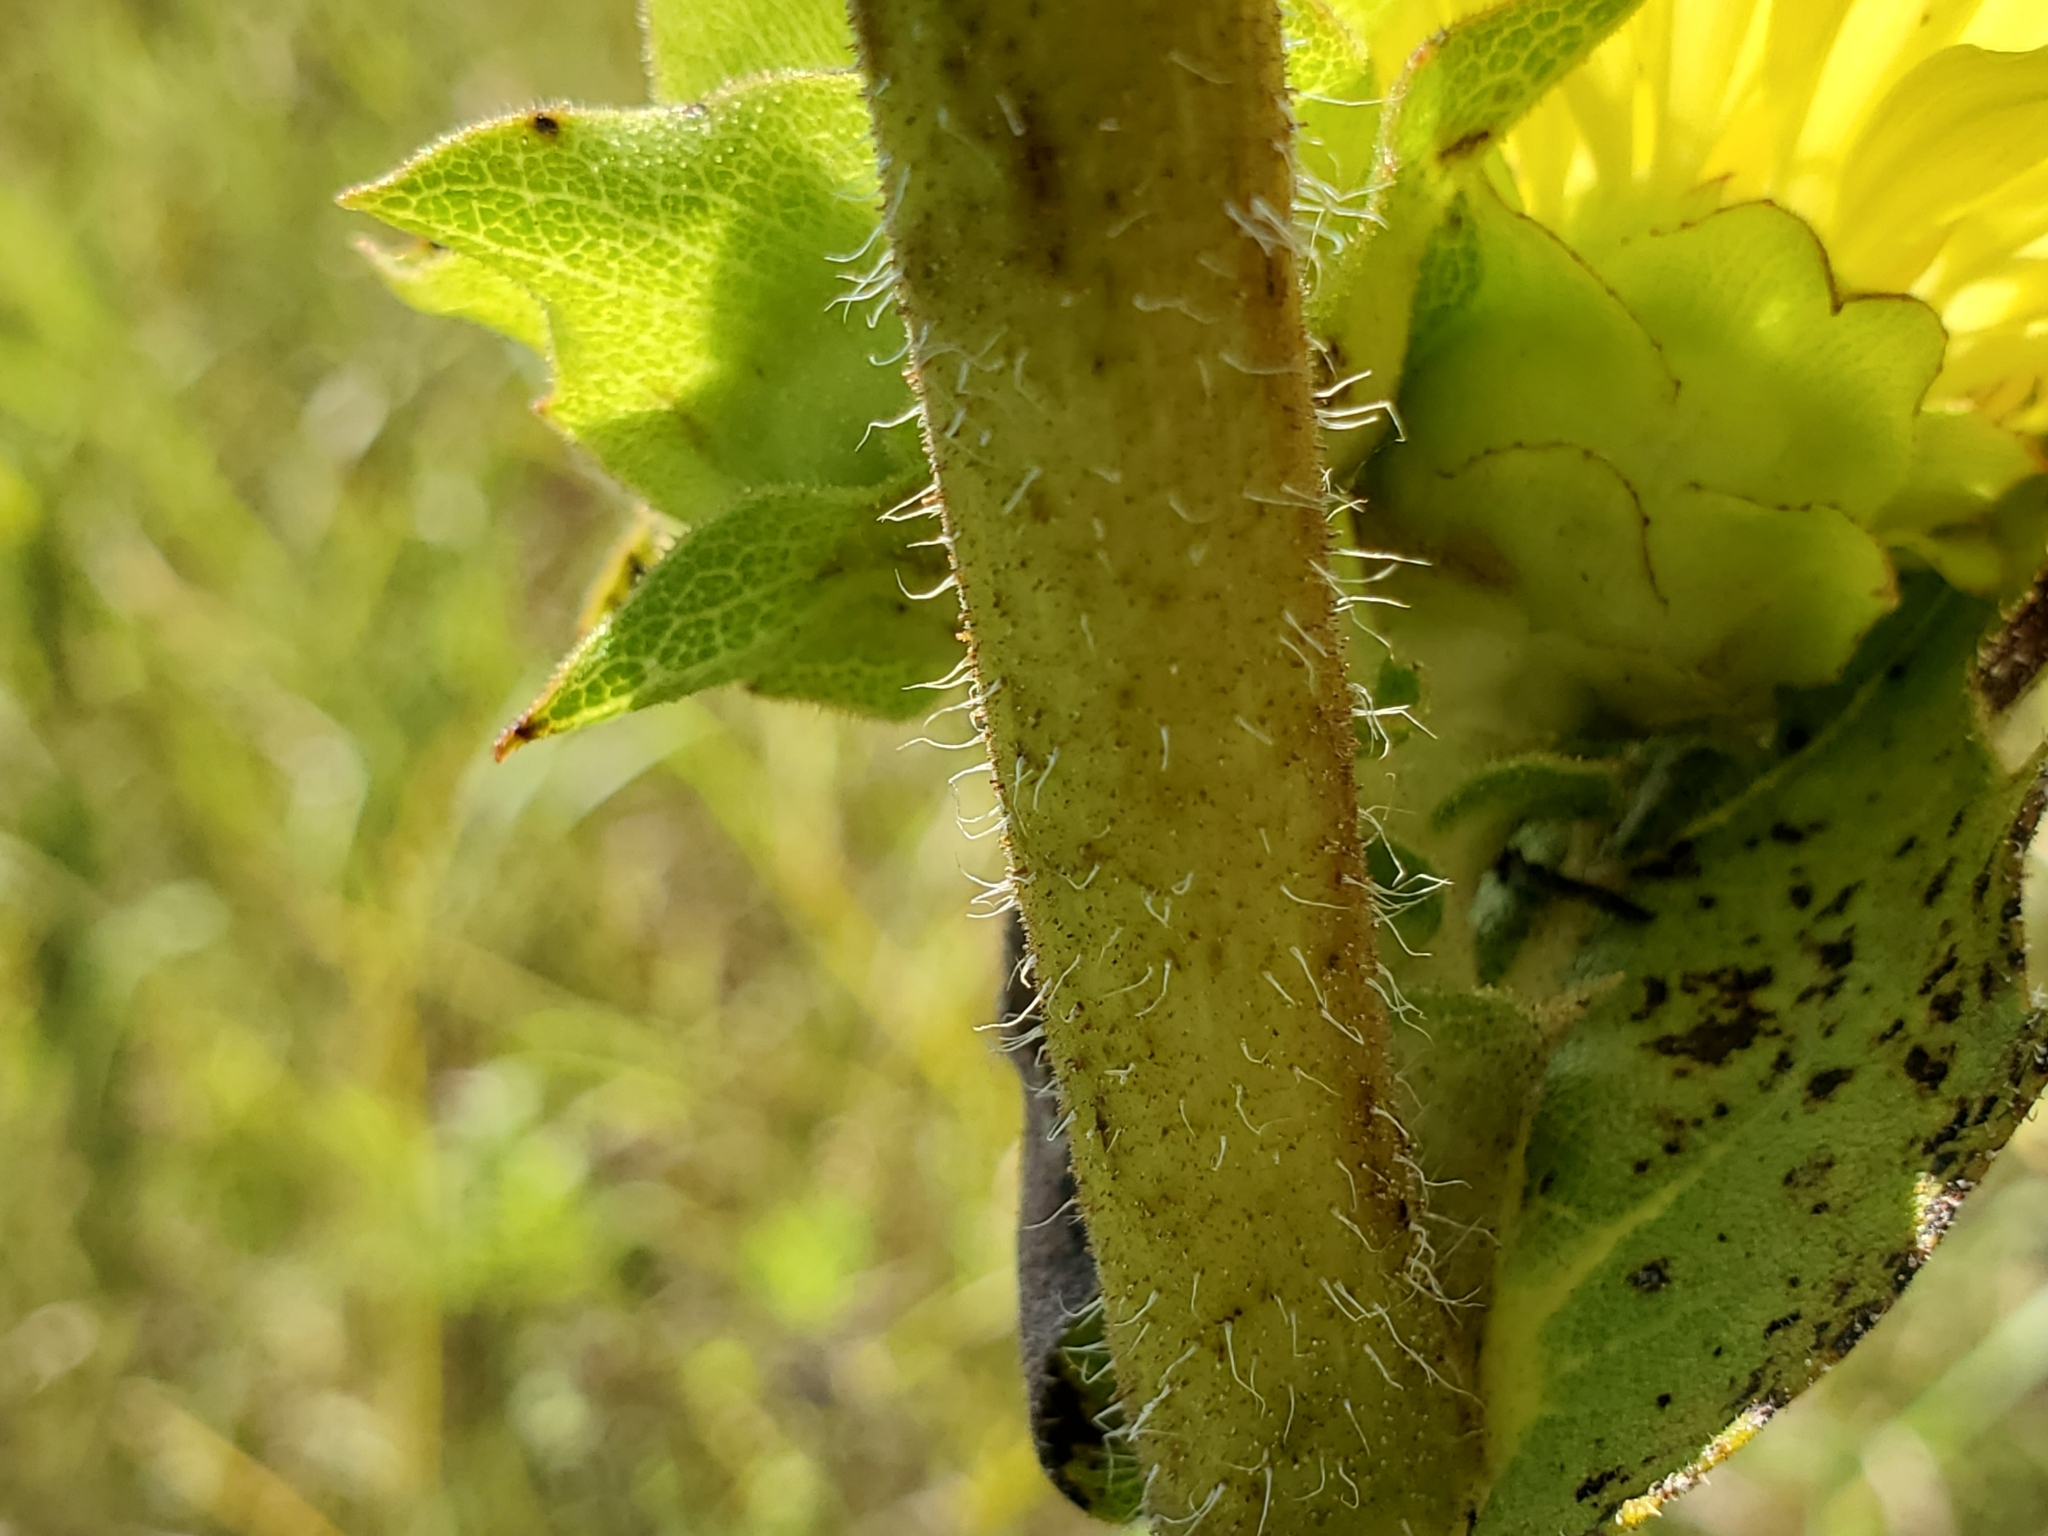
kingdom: Plantae
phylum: Tracheophyta
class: Magnoliopsida
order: Asterales
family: Asteraceae
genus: Silphium
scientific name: Silphium laciniatum
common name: Polarplant
